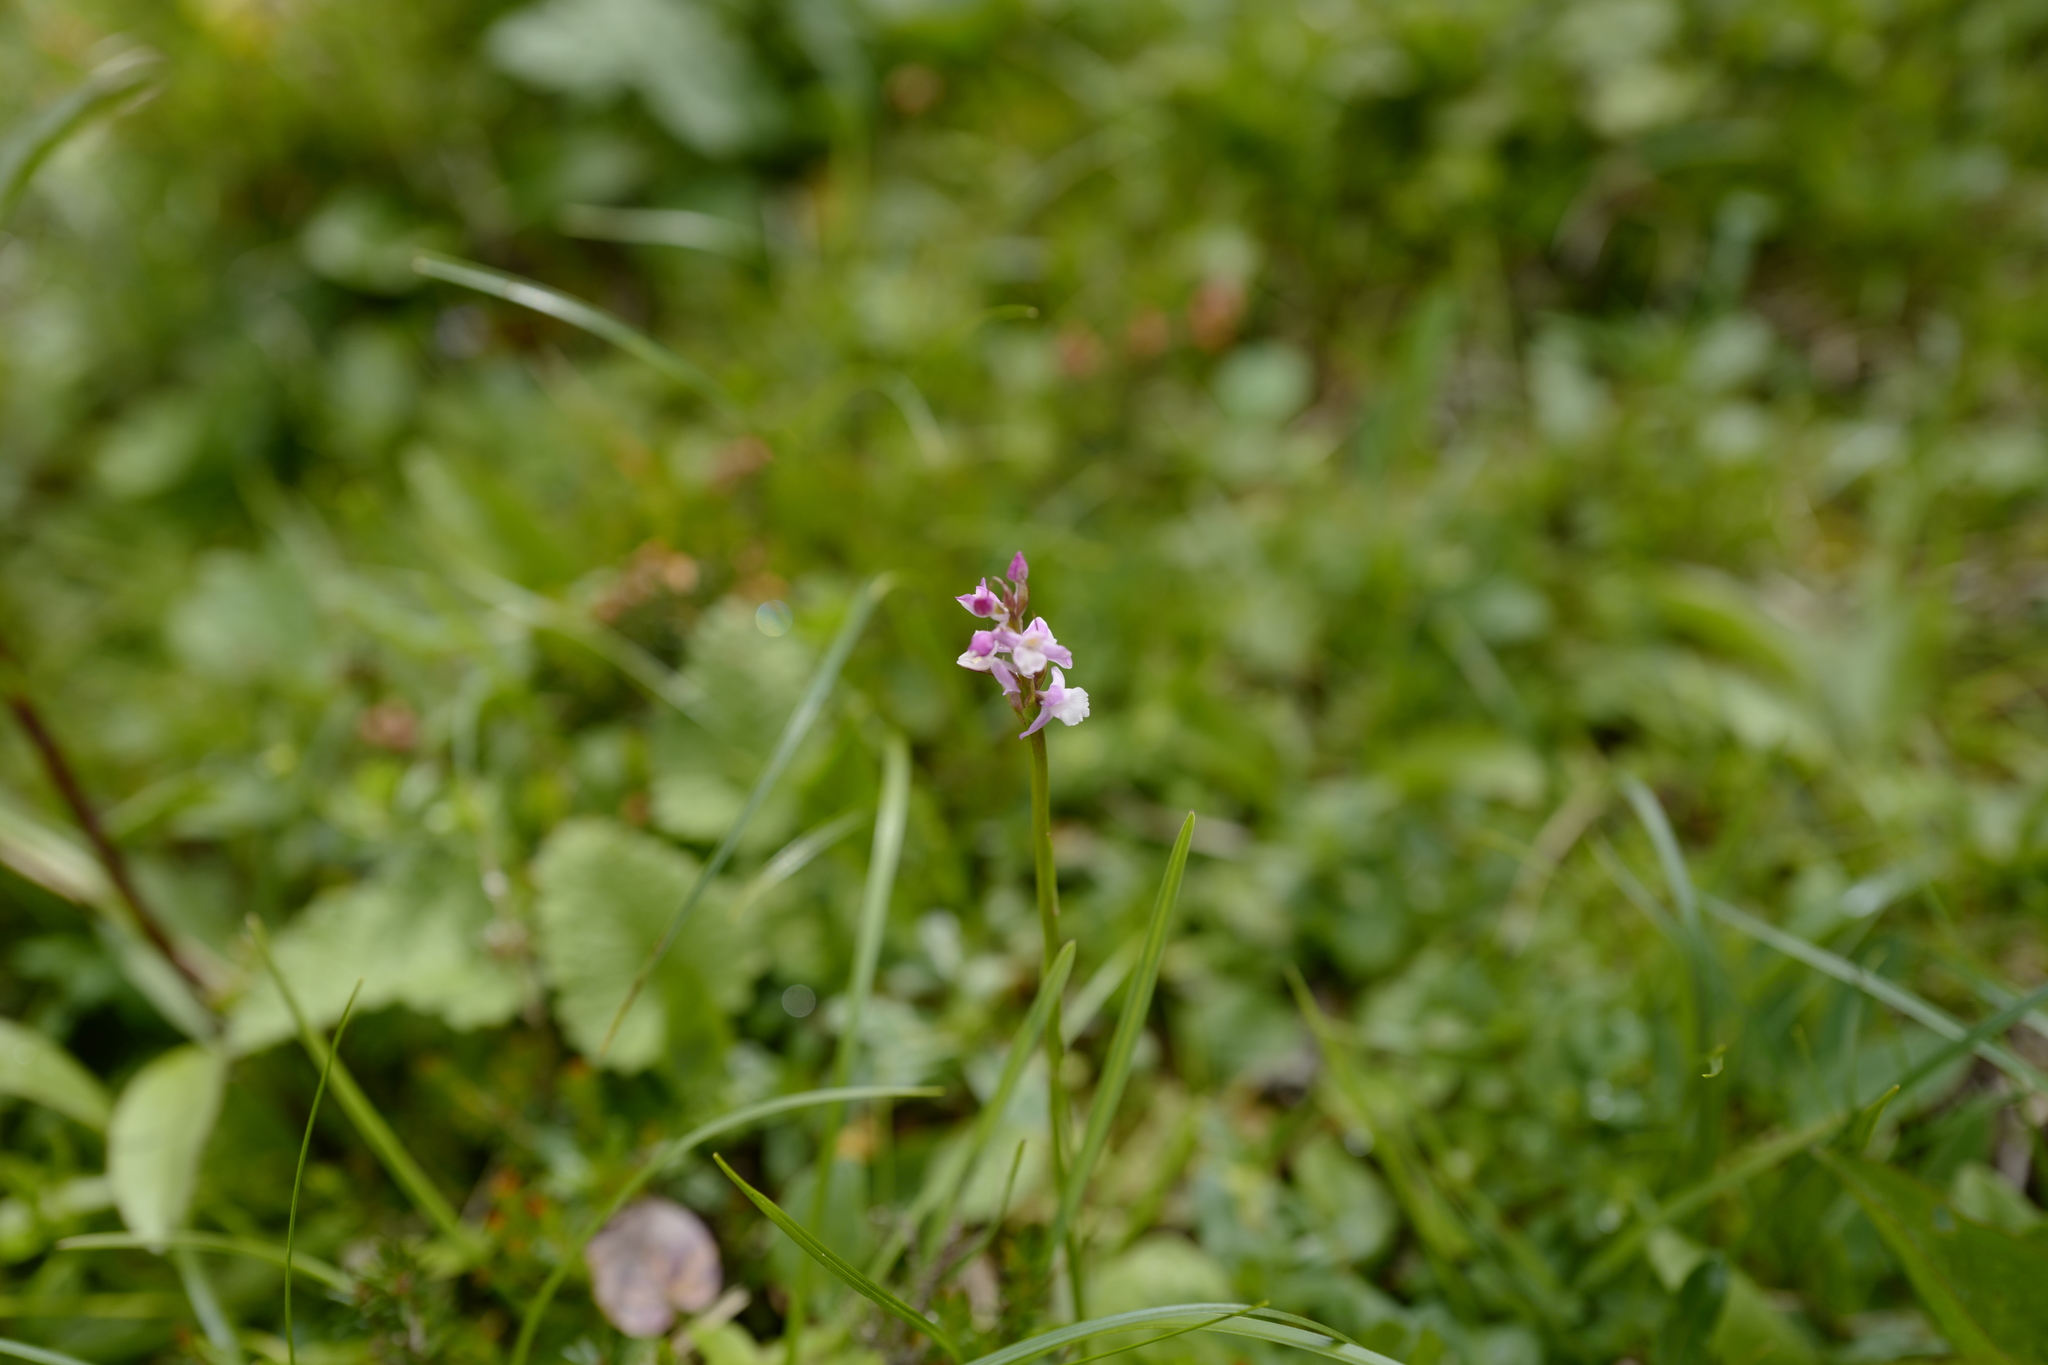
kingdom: Plantae
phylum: Tracheophyta
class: Liliopsida
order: Asparagales
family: Orchidaceae
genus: Gymnadenia
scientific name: Gymnadenia odoratissima
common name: Scented gymnadenia
